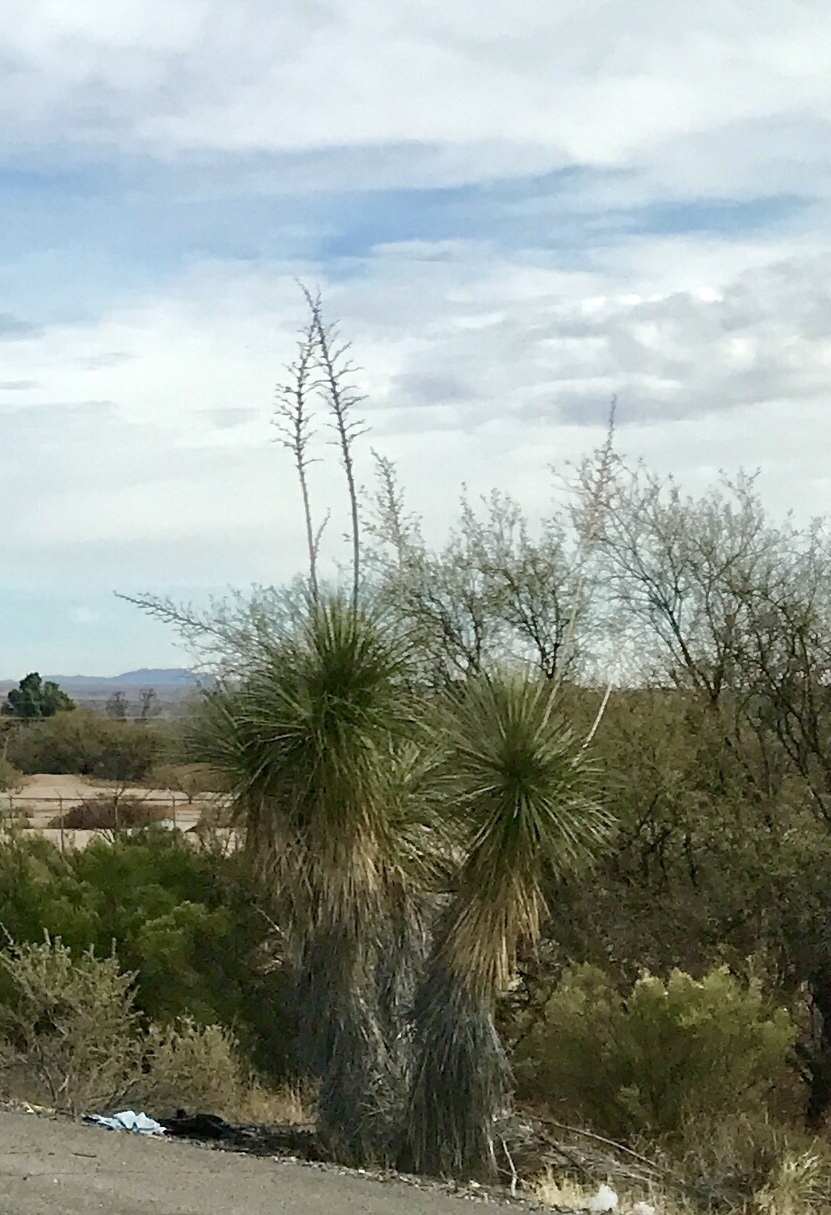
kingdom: Plantae
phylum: Tracheophyta
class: Liliopsida
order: Asparagales
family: Asparagaceae
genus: Yucca
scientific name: Yucca elata
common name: Palmella
